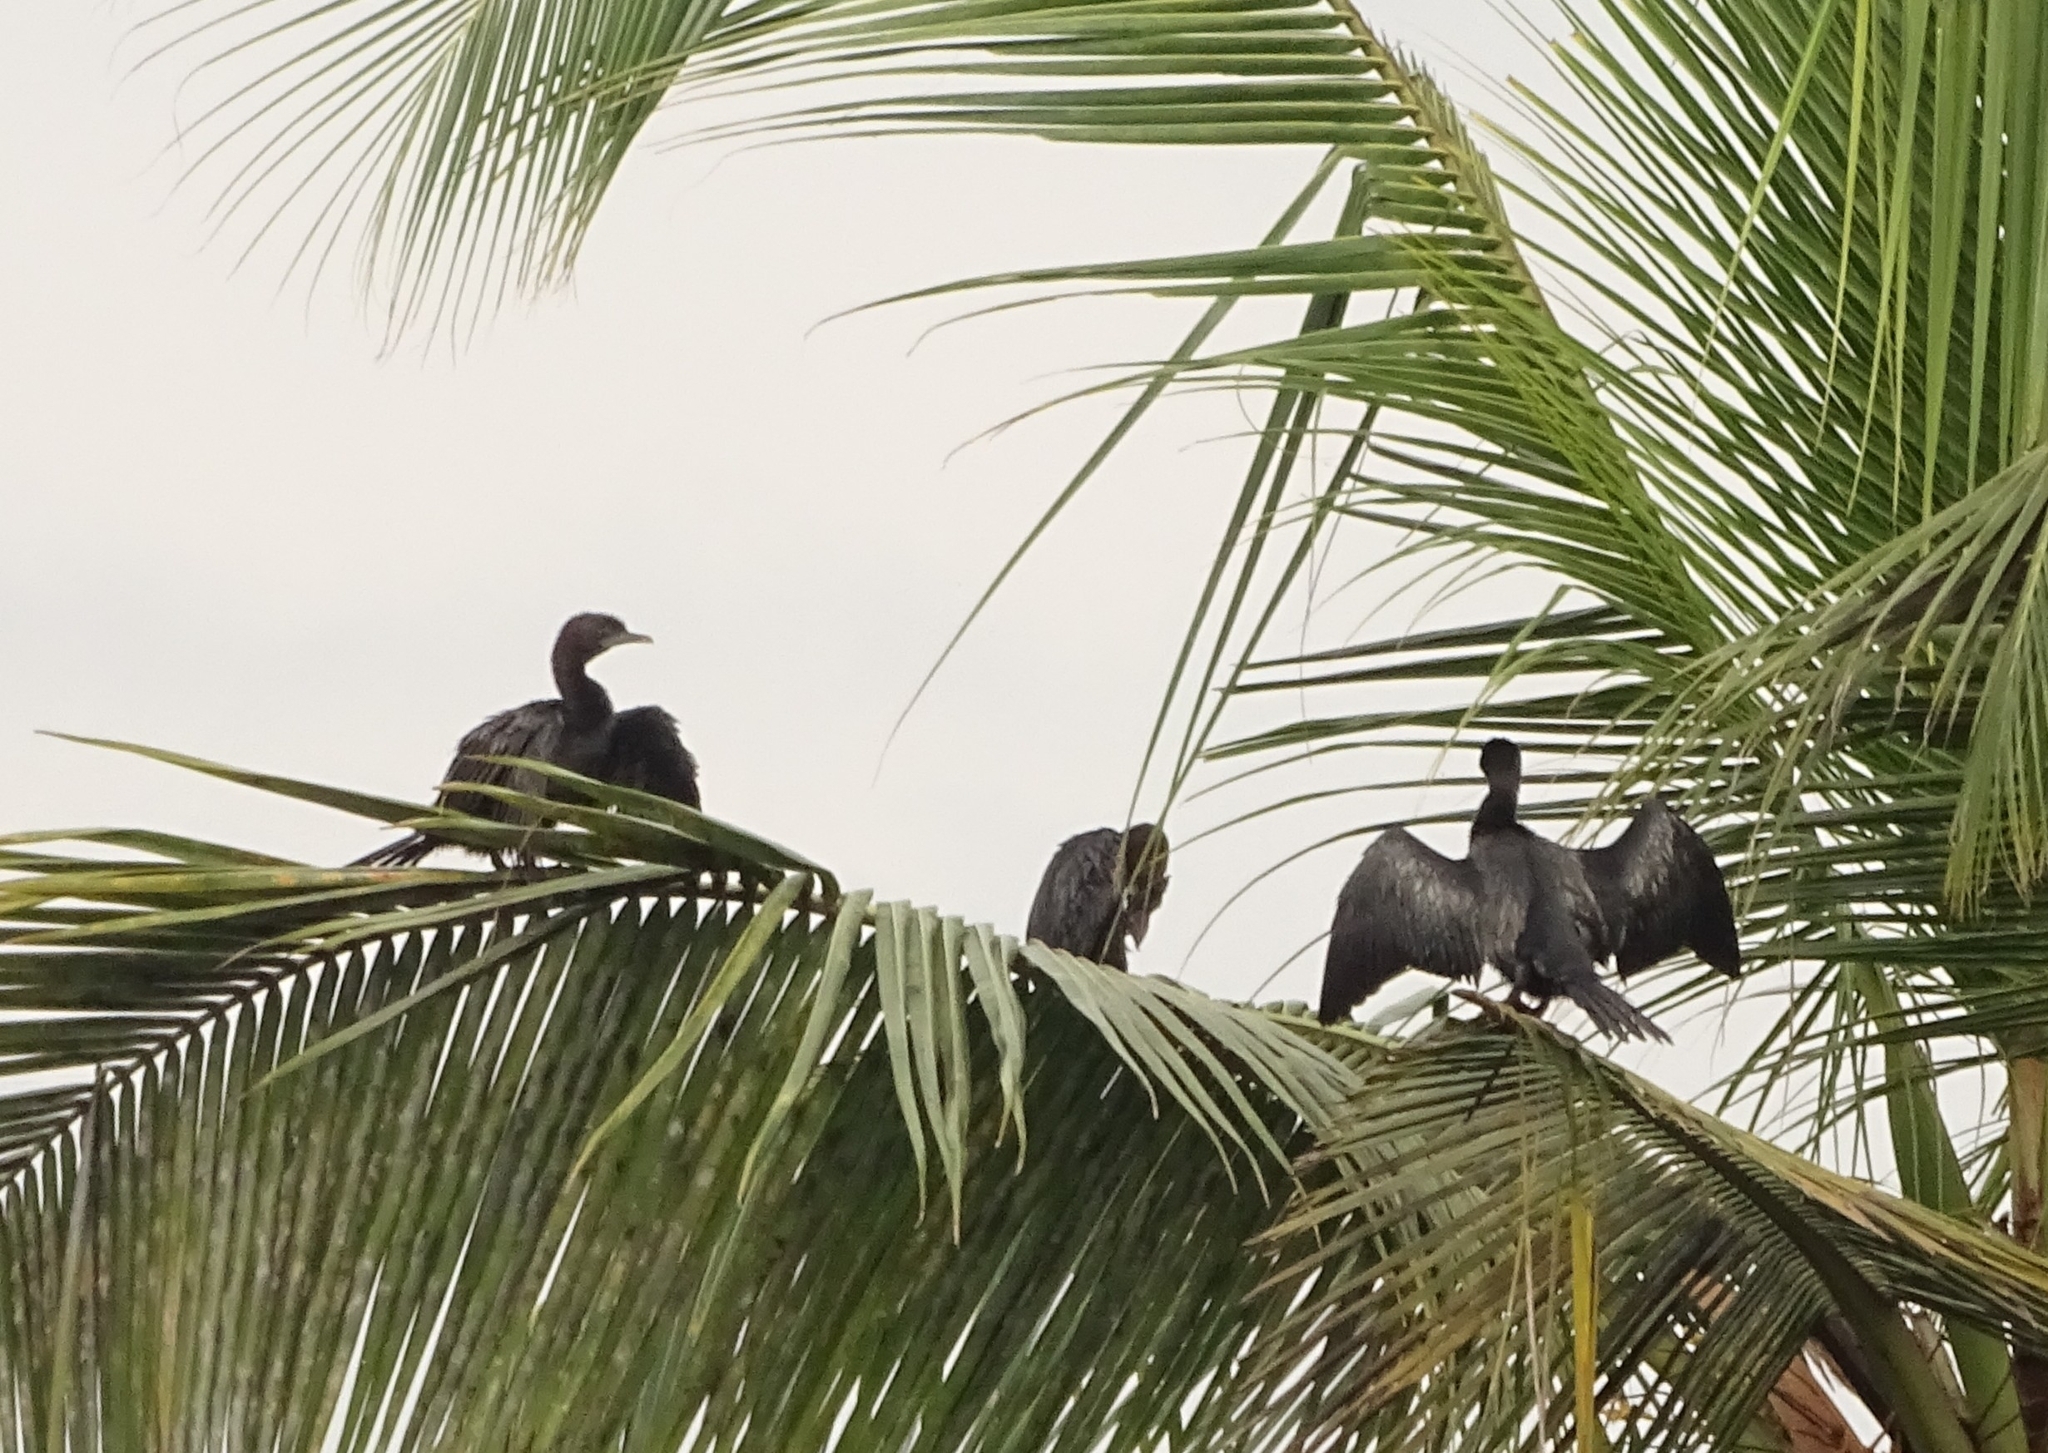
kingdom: Animalia
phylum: Chordata
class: Aves
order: Suliformes
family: Phalacrocoracidae
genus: Microcarbo
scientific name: Microcarbo niger
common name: Little cormorant
